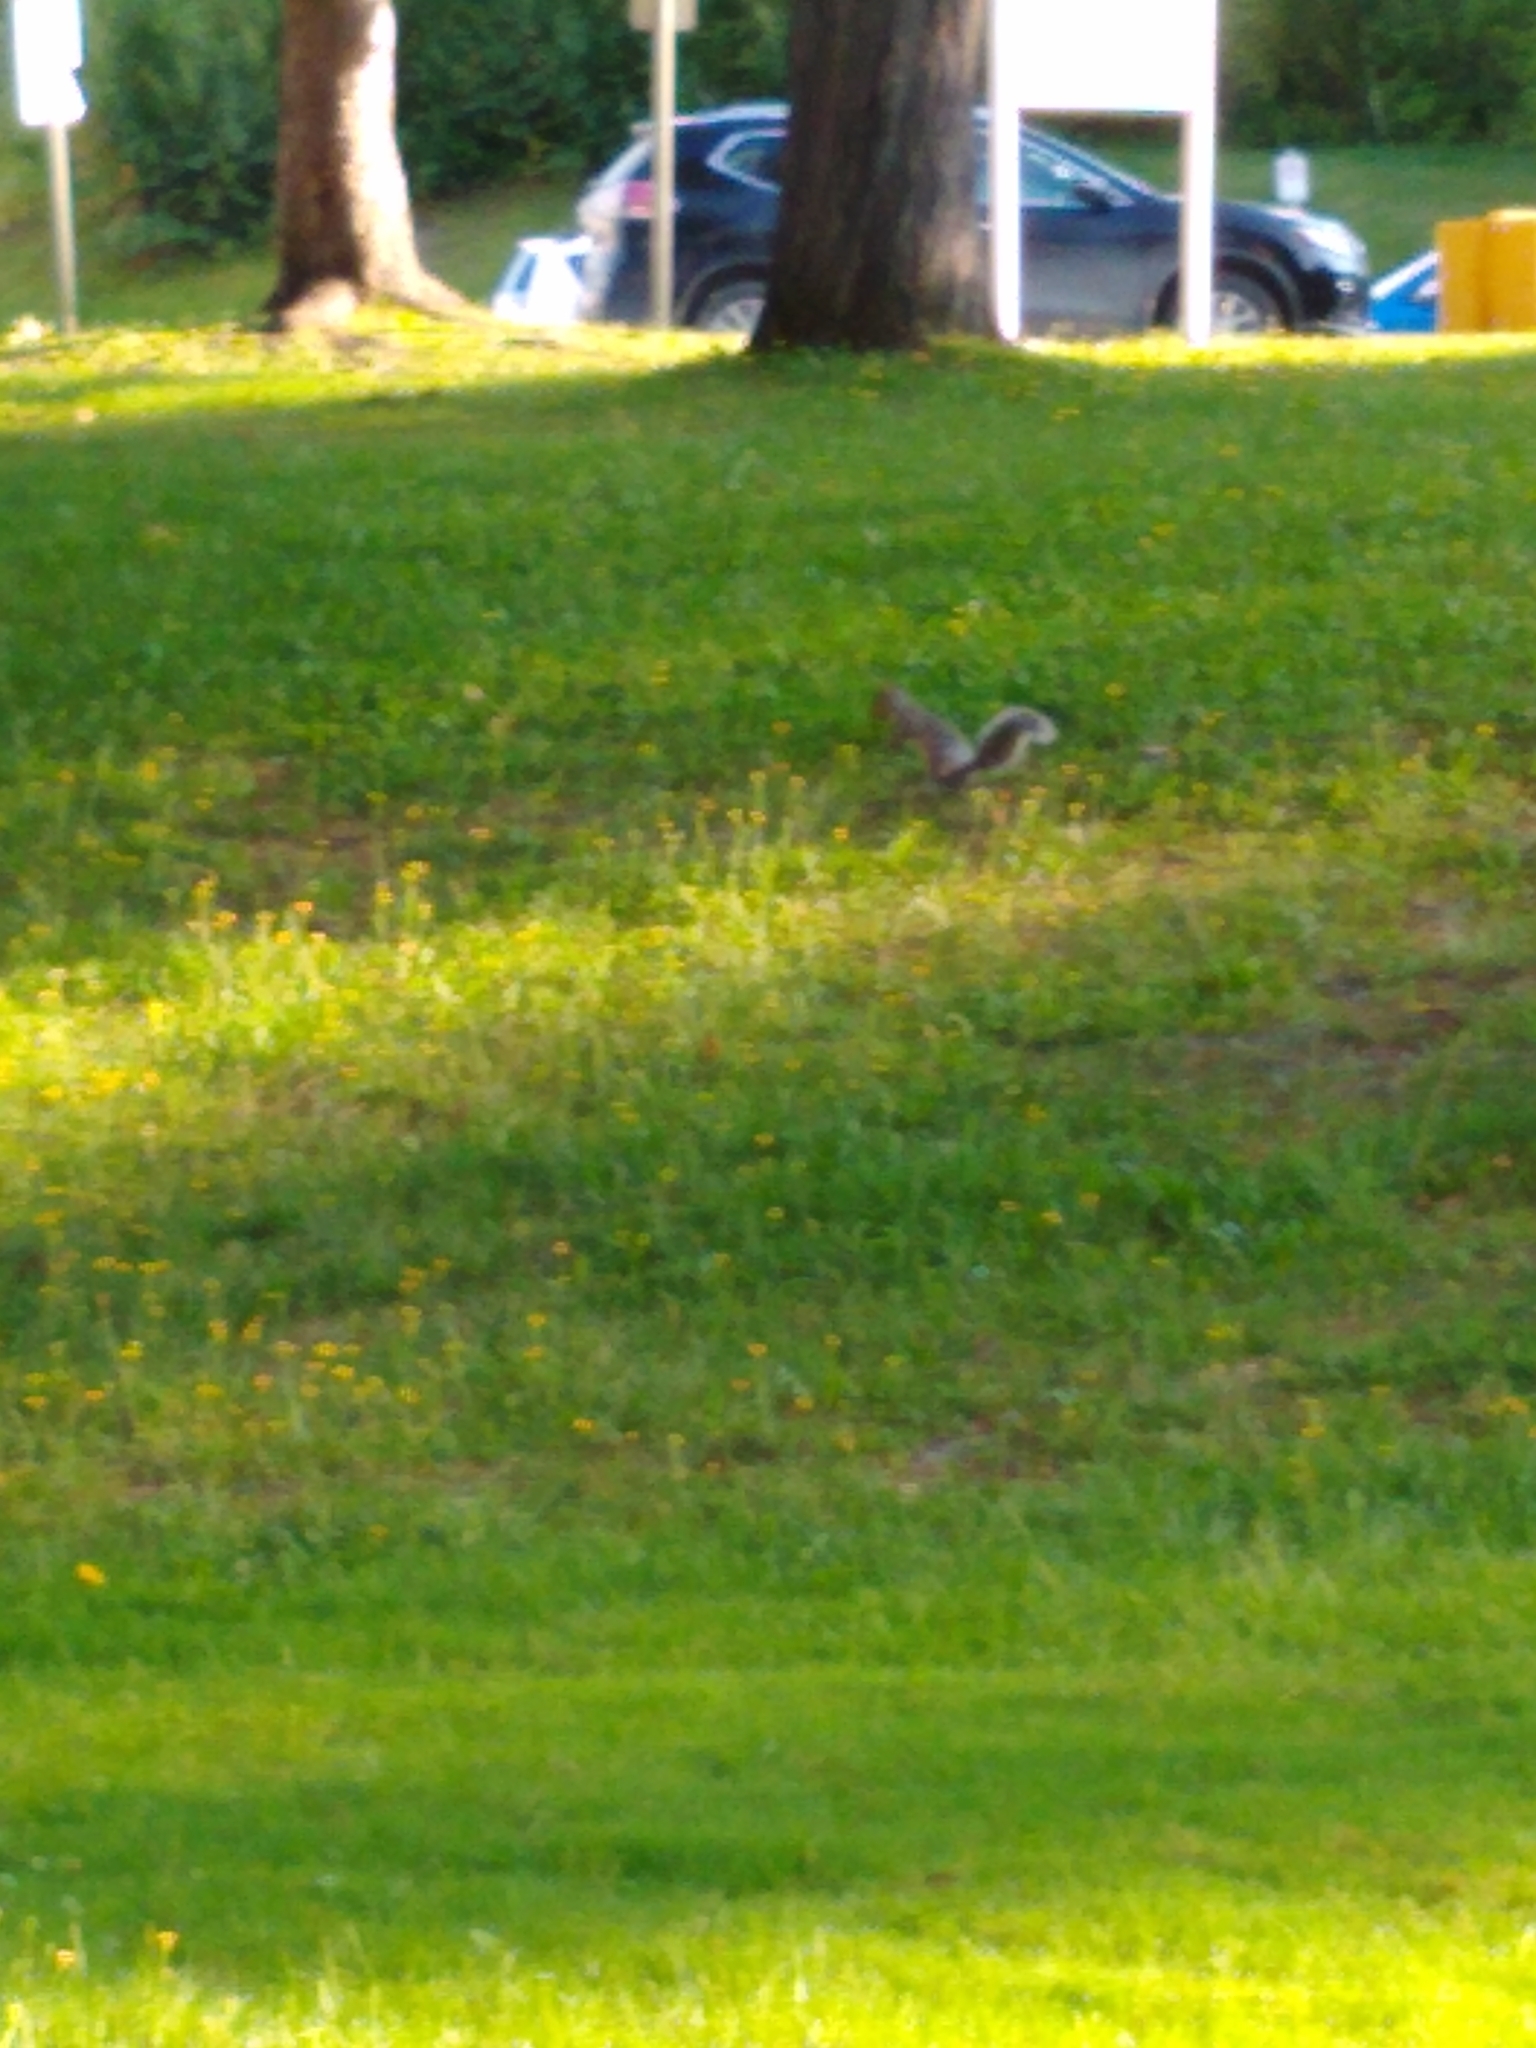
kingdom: Animalia
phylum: Chordata
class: Mammalia
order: Rodentia
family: Sciuridae
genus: Sciurus
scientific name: Sciurus carolinensis
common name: Eastern gray squirrel
